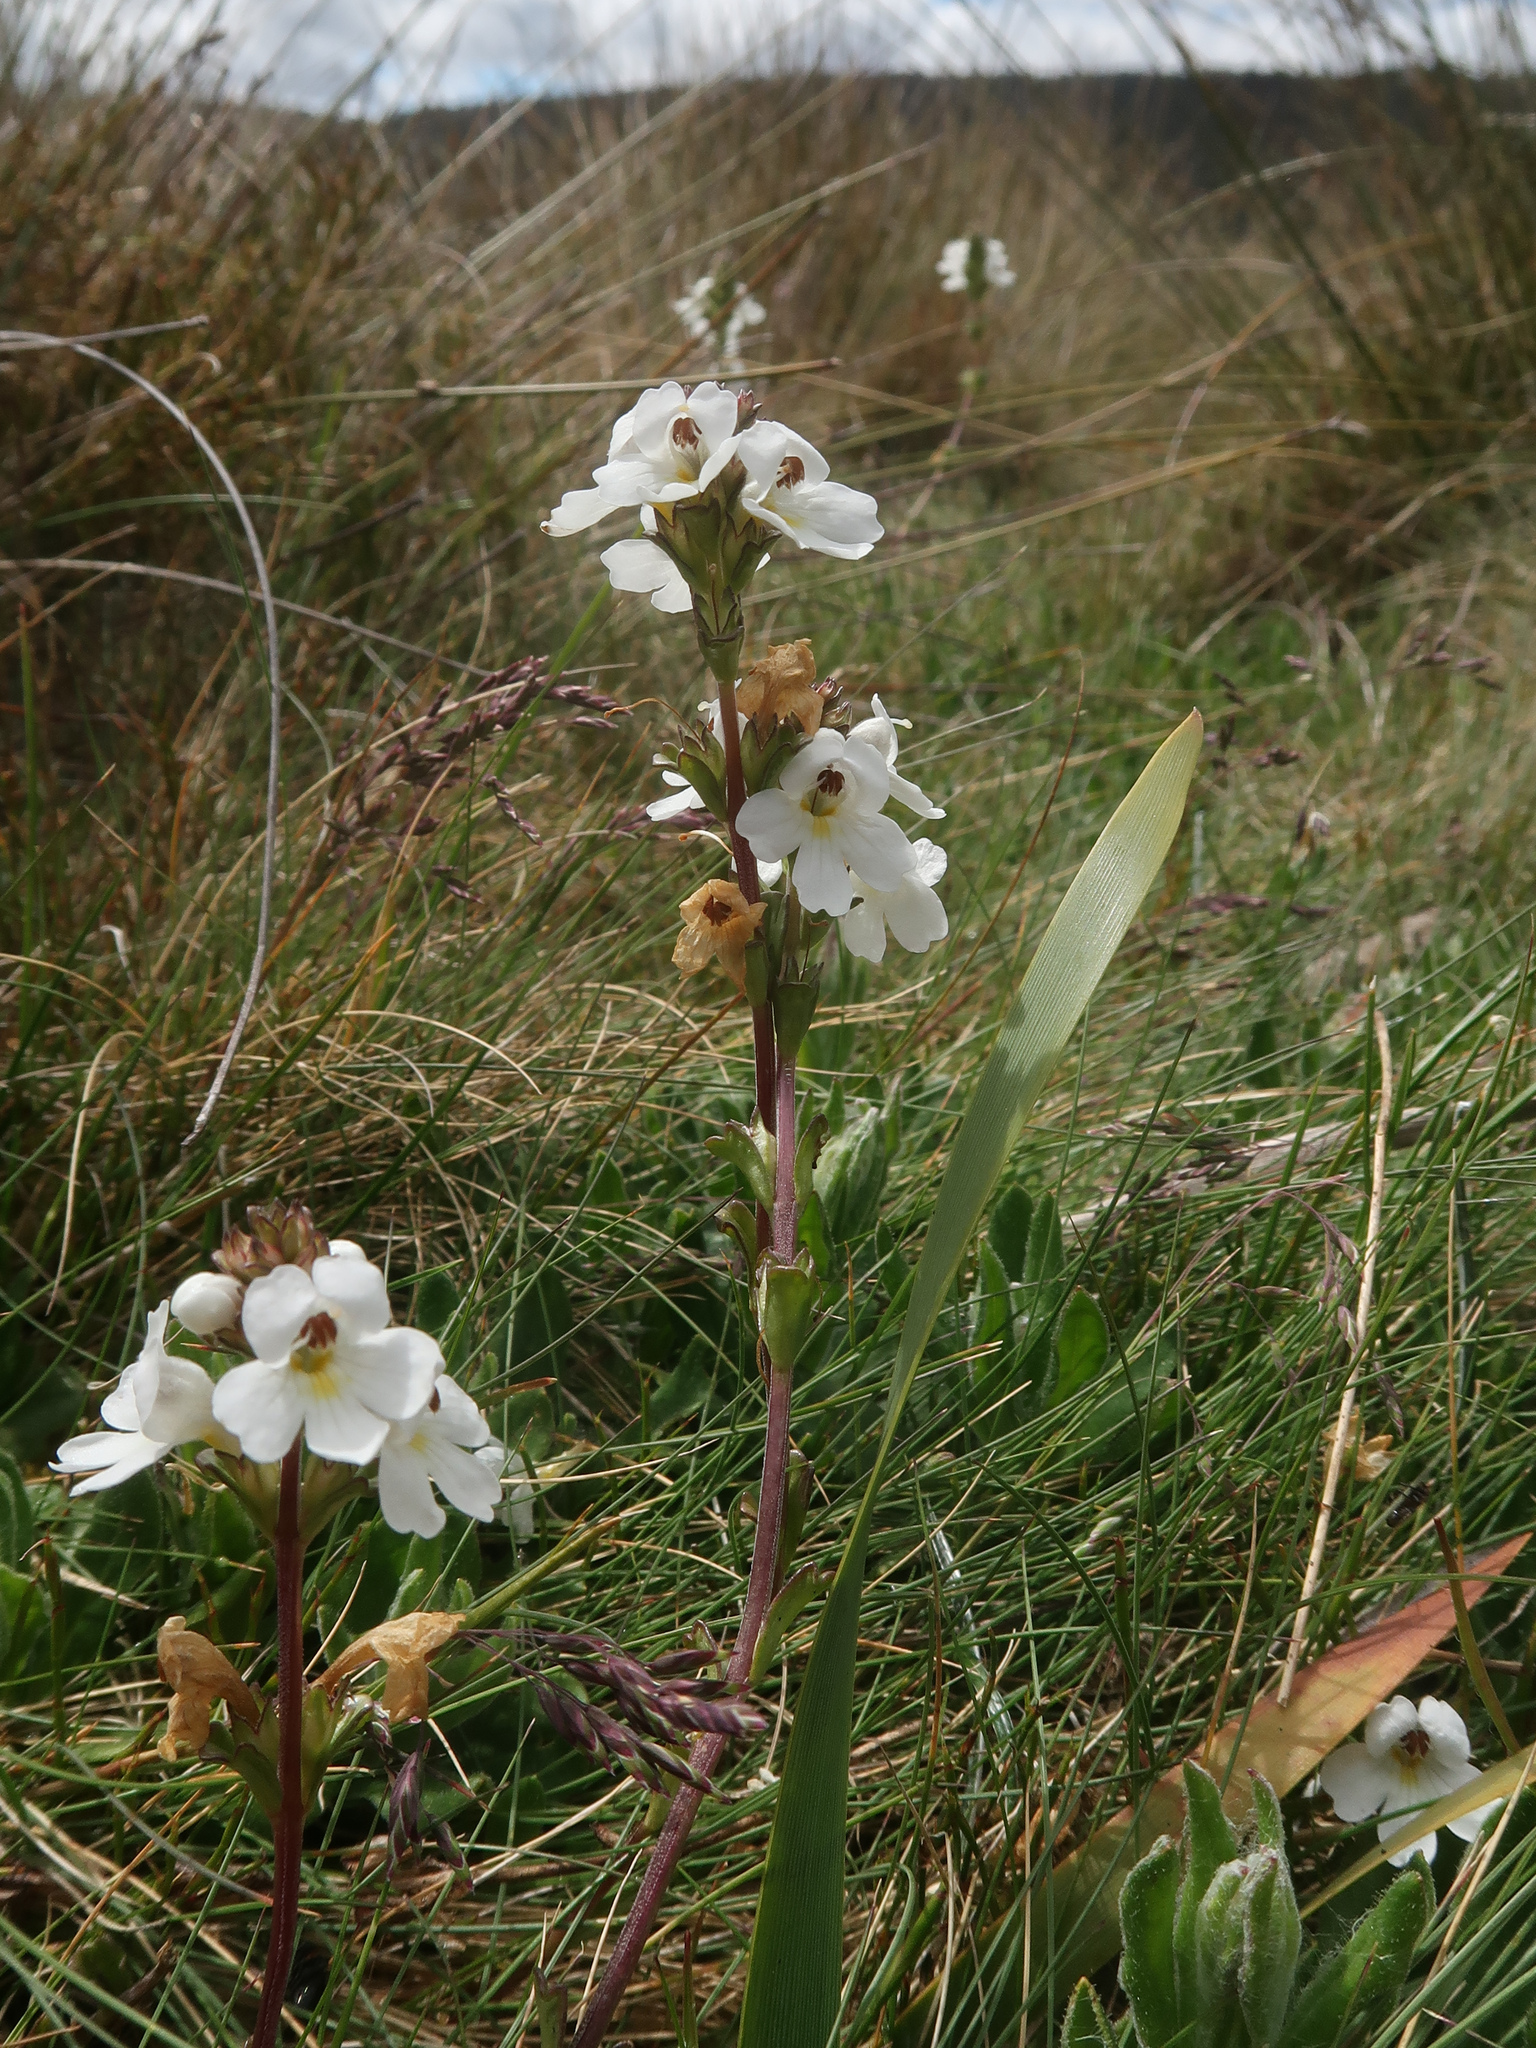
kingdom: Plantae
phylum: Tracheophyta
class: Magnoliopsida
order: Lamiales
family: Orobanchaceae
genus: Euphrasia
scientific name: Euphrasia collina
